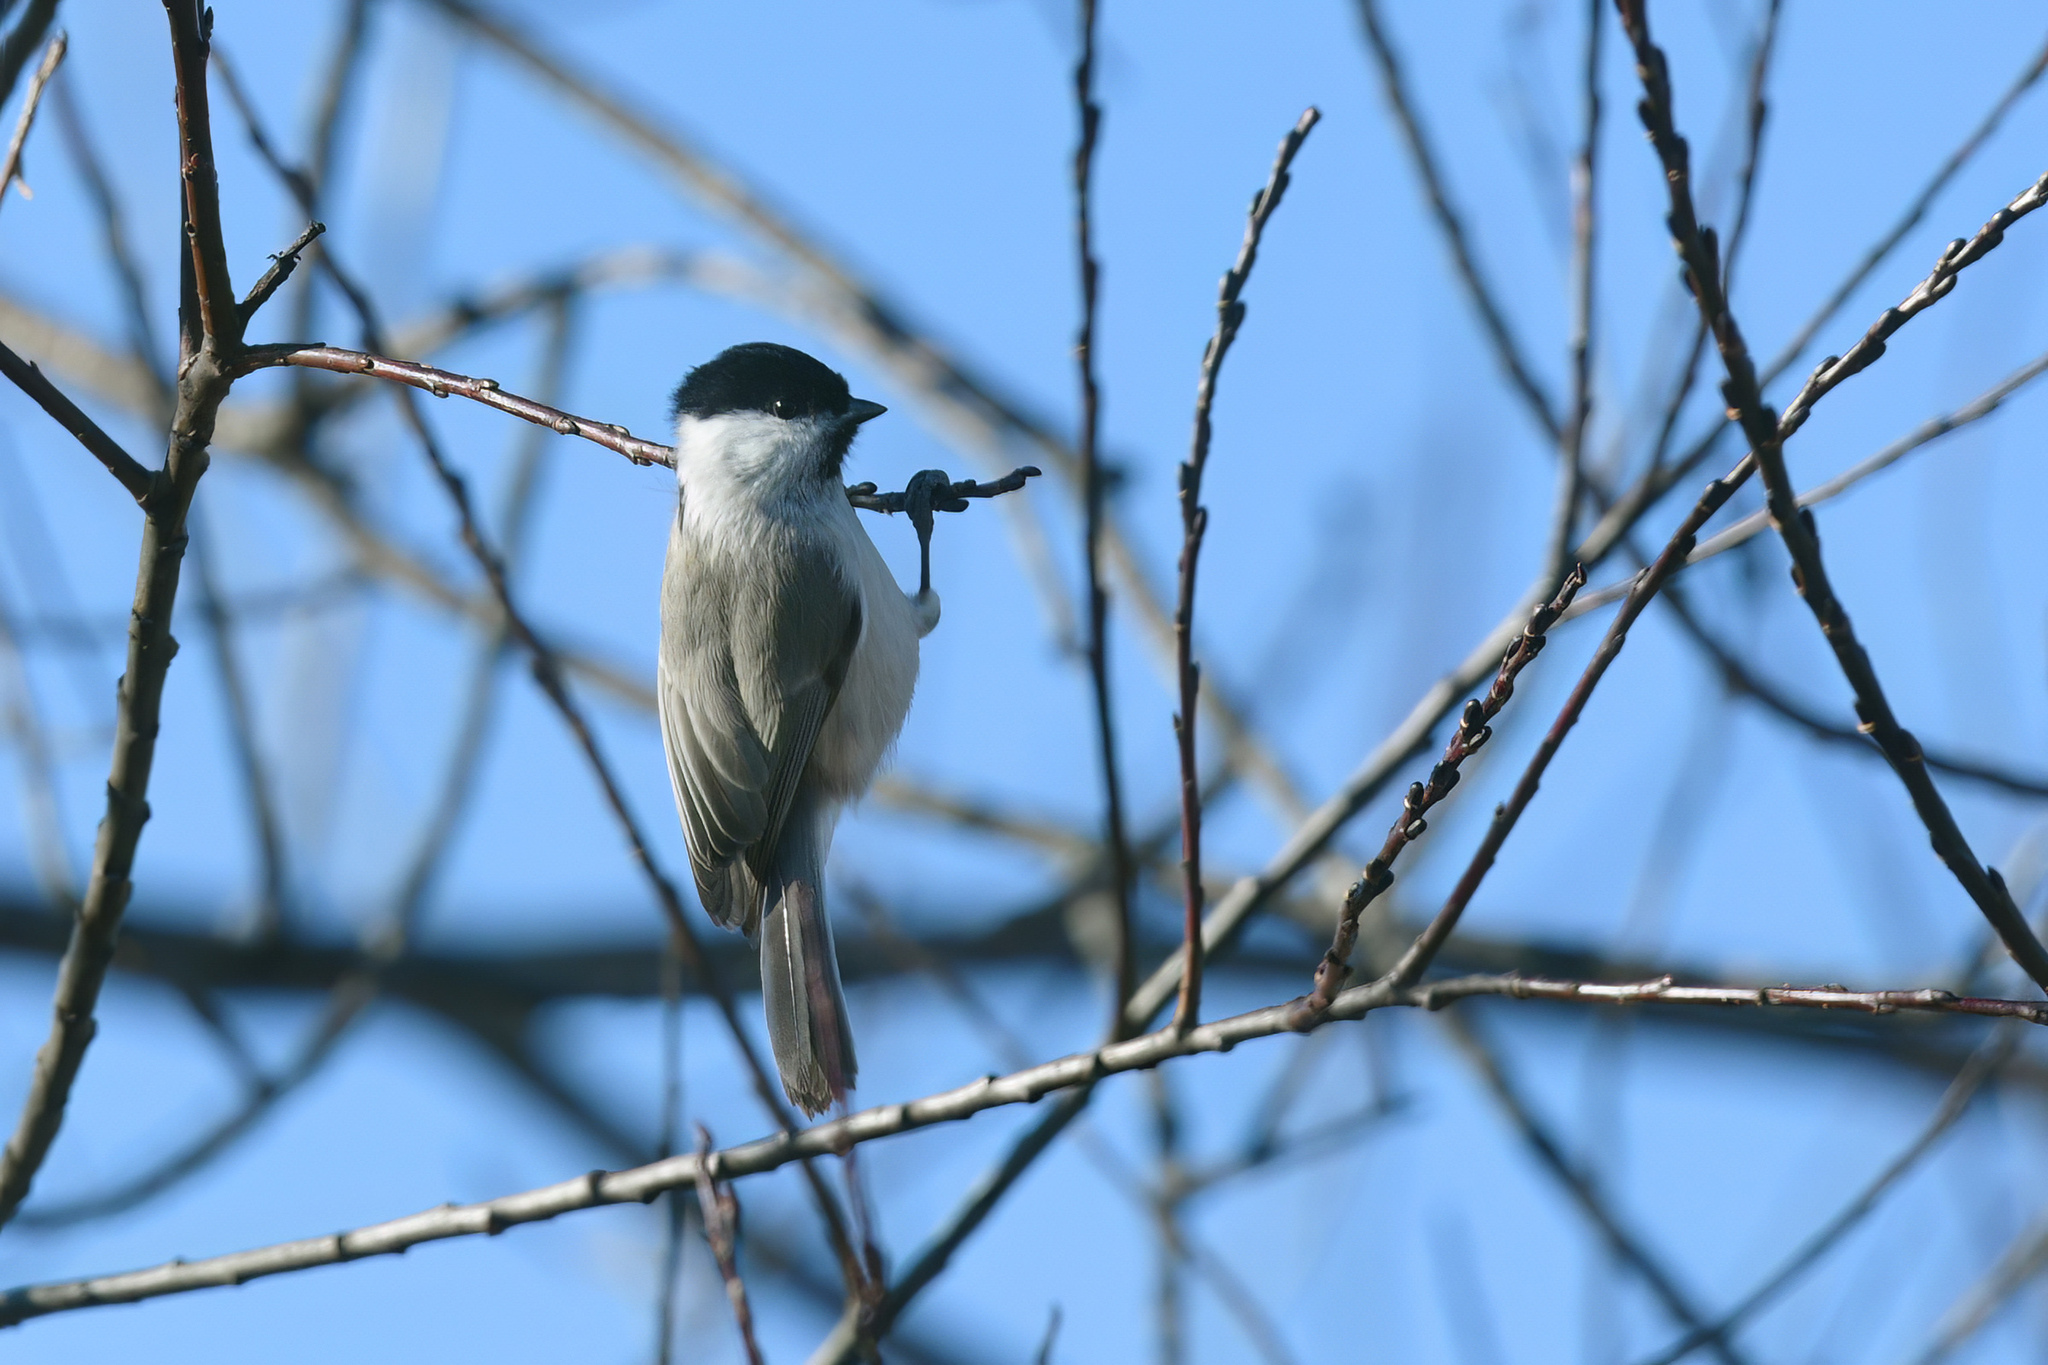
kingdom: Animalia
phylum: Chordata
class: Aves
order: Passeriformes
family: Paridae
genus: Poecile
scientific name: Poecile montanus
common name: Willow tit
